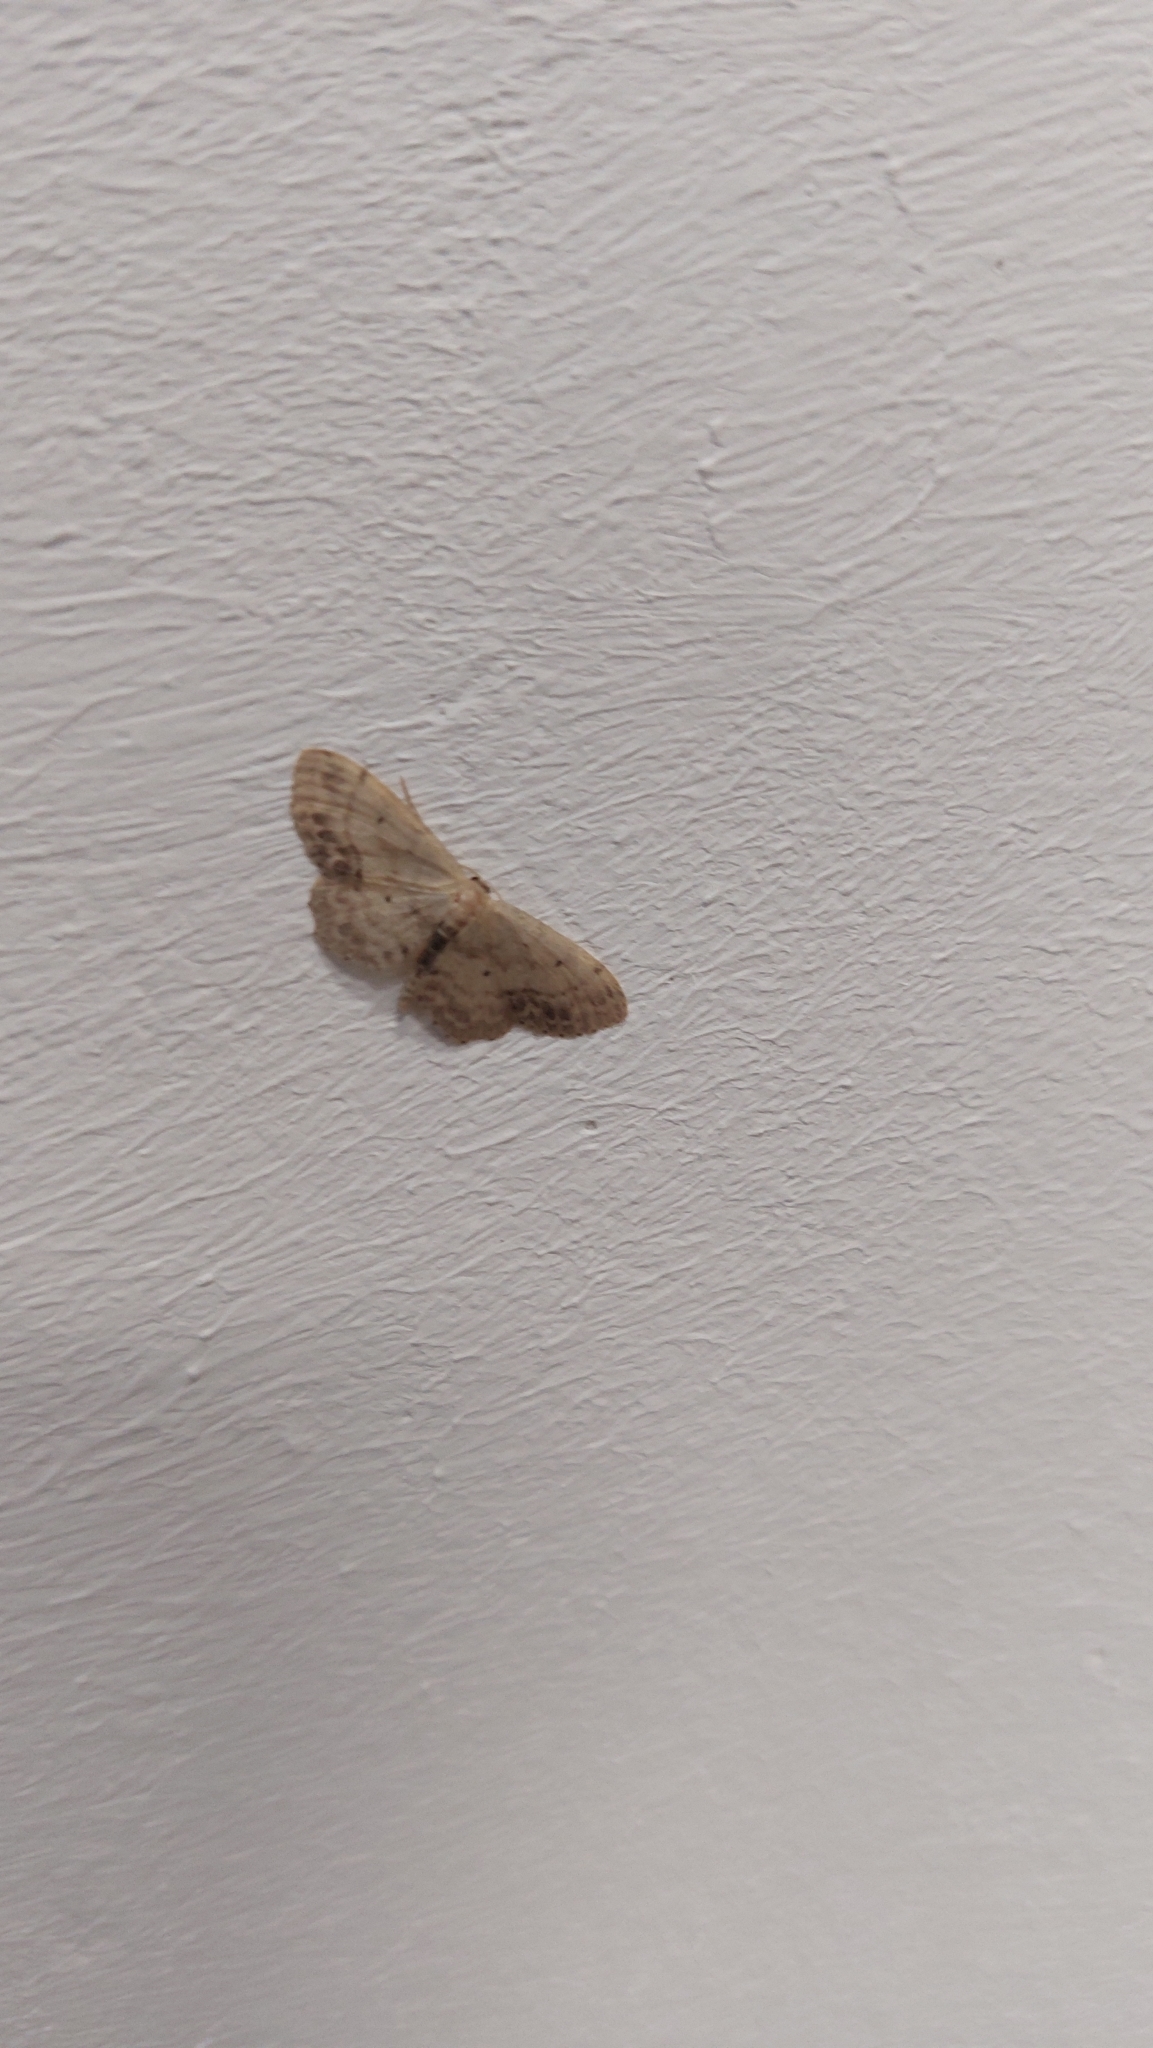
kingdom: Animalia
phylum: Arthropoda
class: Insecta
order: Lepidoptera
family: Geometridae
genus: Idaea
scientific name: Idaea dimidiata
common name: Single-dotted wave
